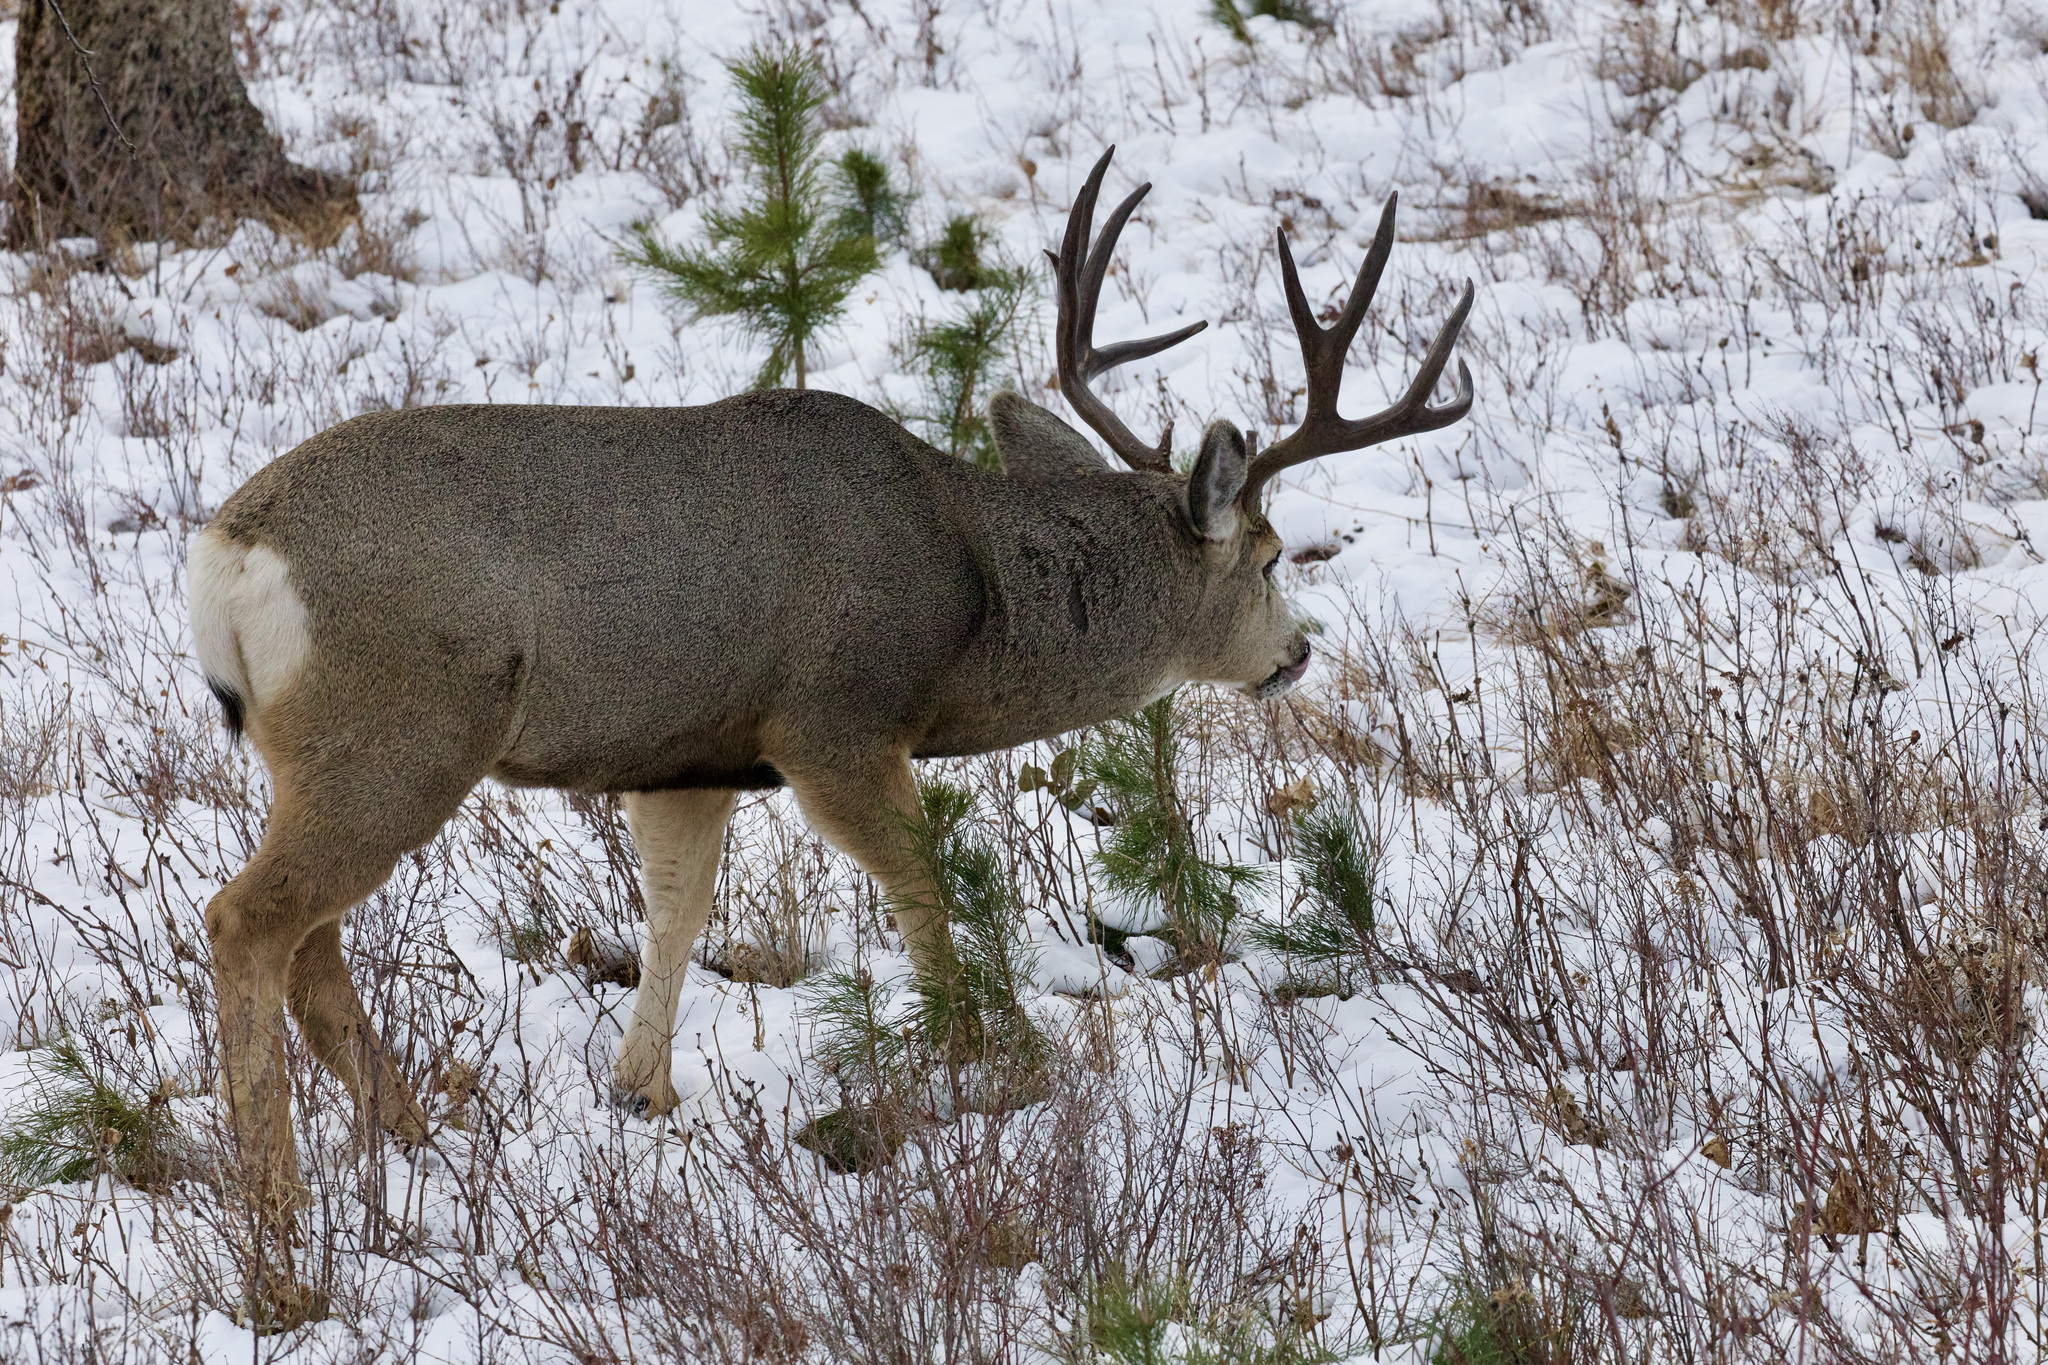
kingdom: Animalia
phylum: Chordata
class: Mammalia
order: Artiodactyla
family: Cervidae
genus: Odocoileus
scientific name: Odocoileus hemionus
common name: Mule deer
